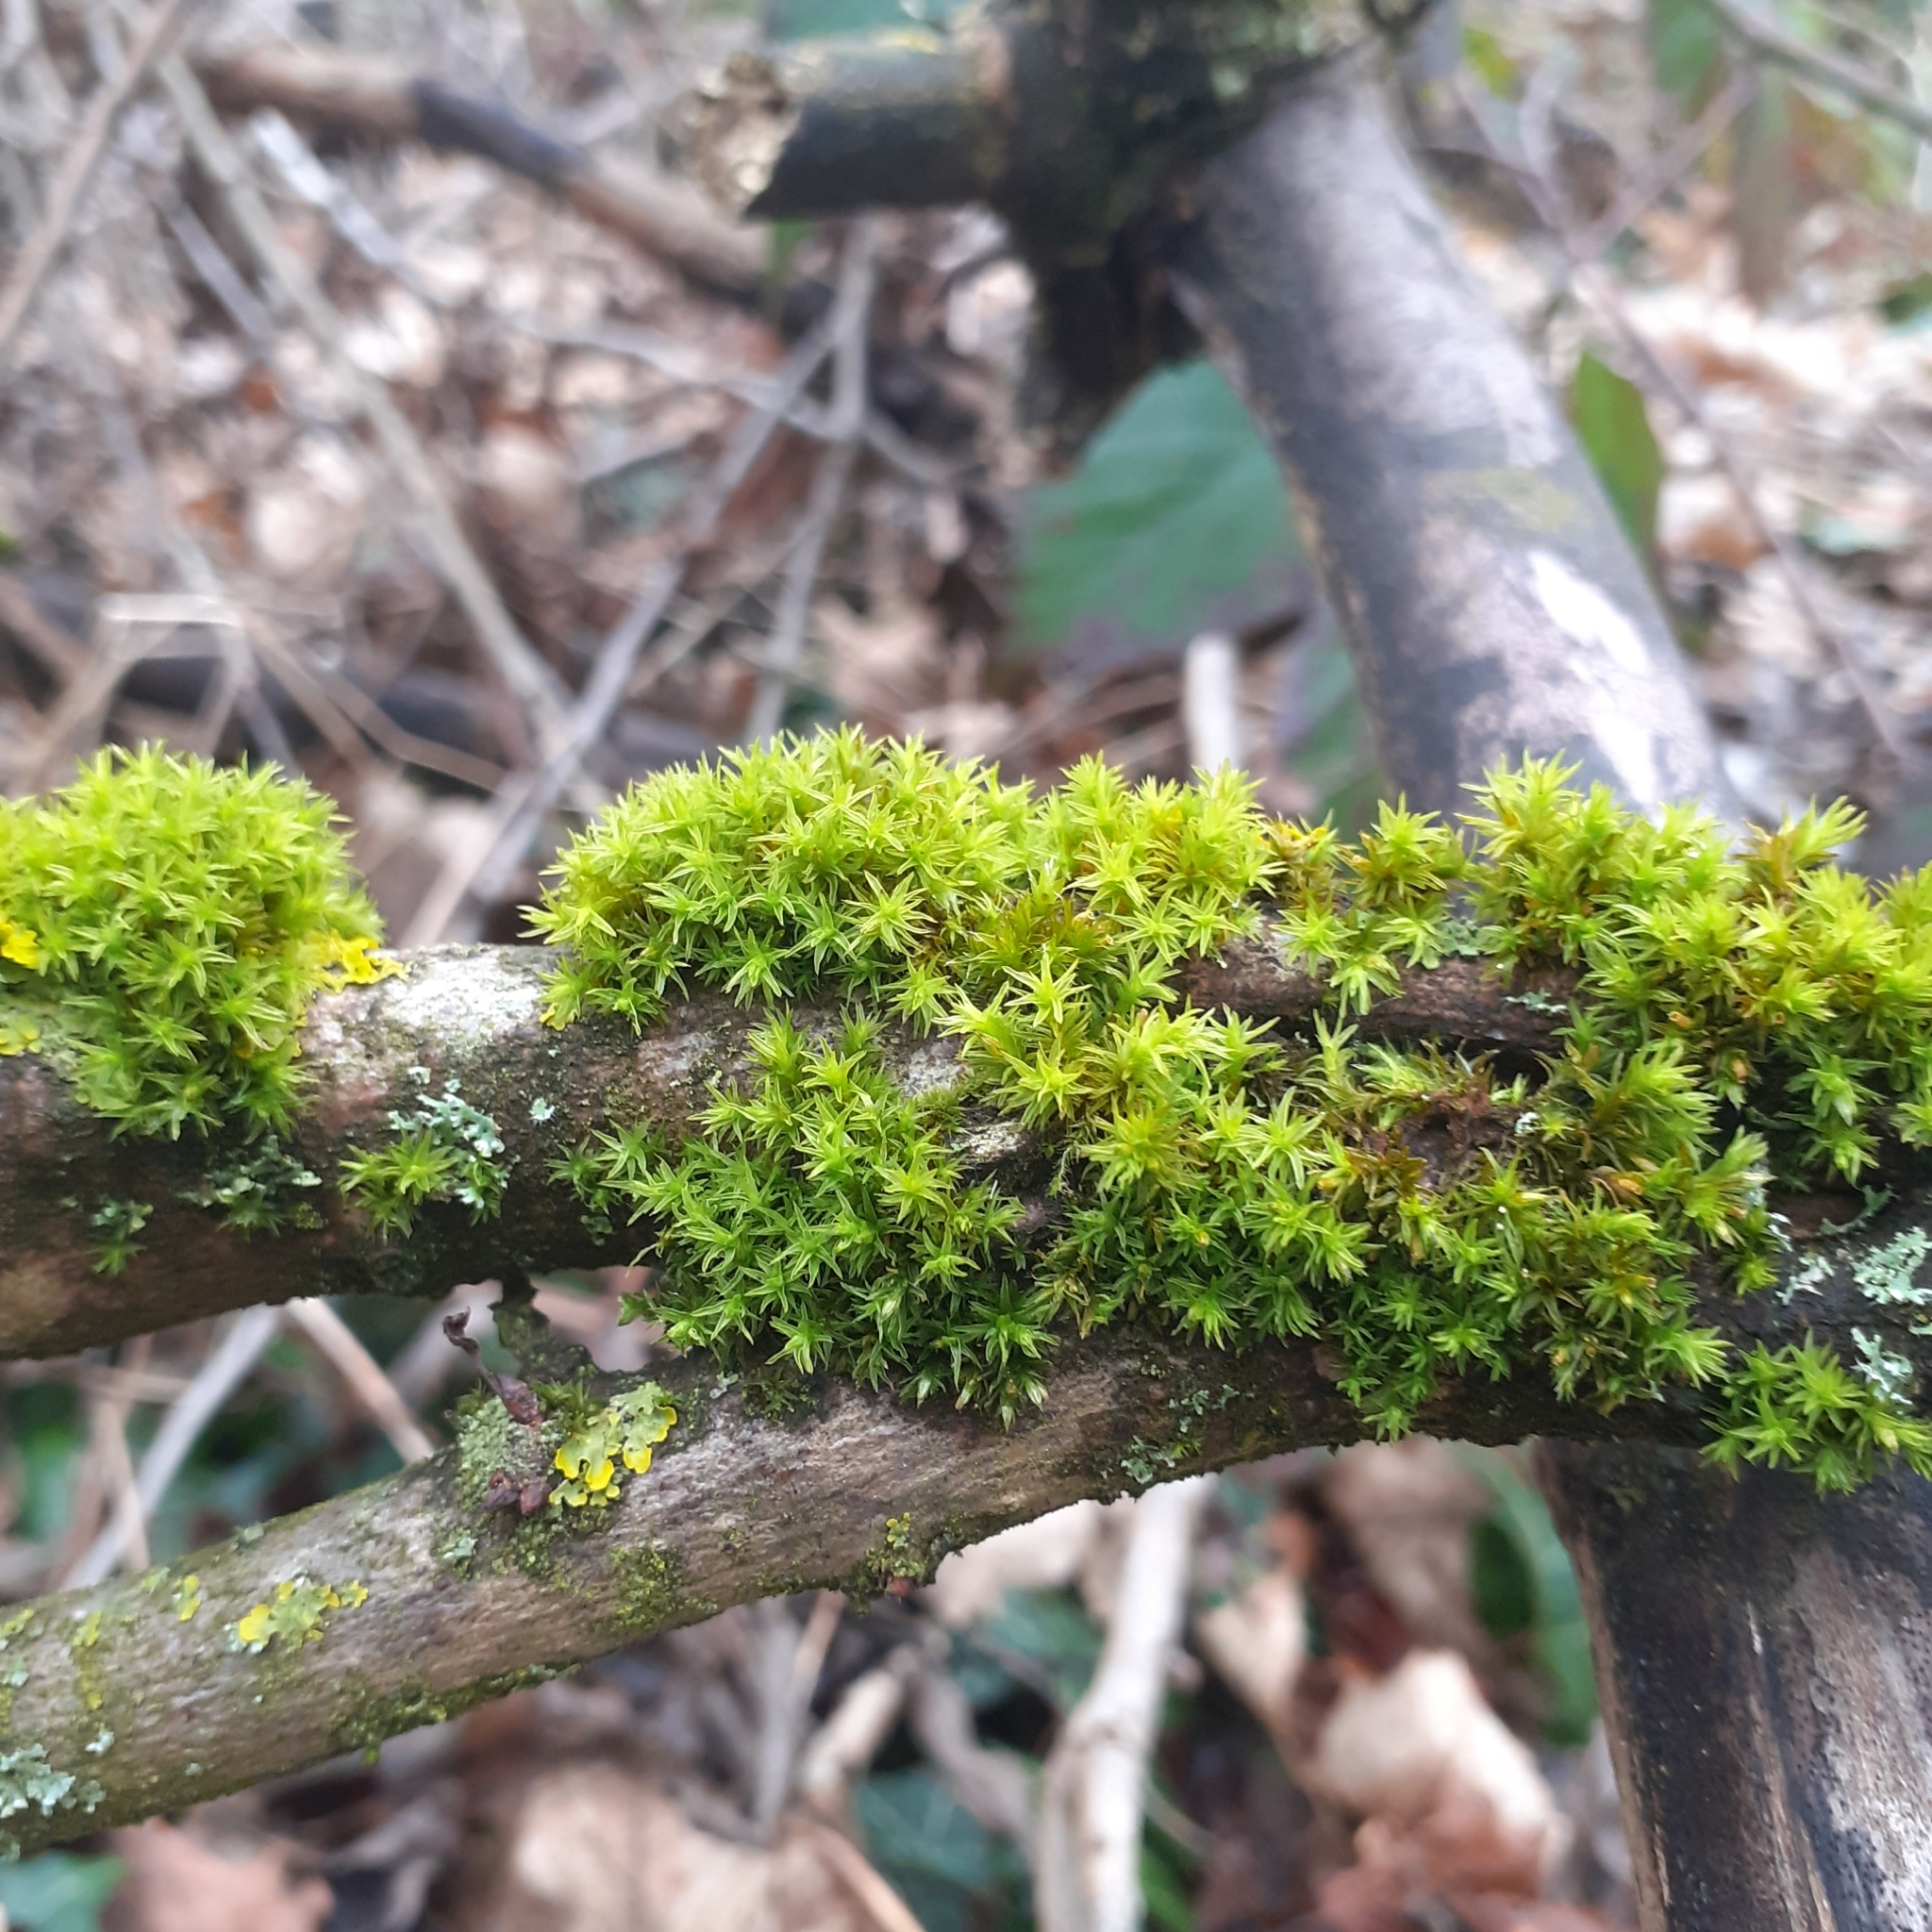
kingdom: Plantae
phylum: Bryophyta
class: Bryopsida
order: Orthotrichales
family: Orthotrichaceae
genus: Lewinskya
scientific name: Lewinskya affinis
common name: Wood bristle-moss
